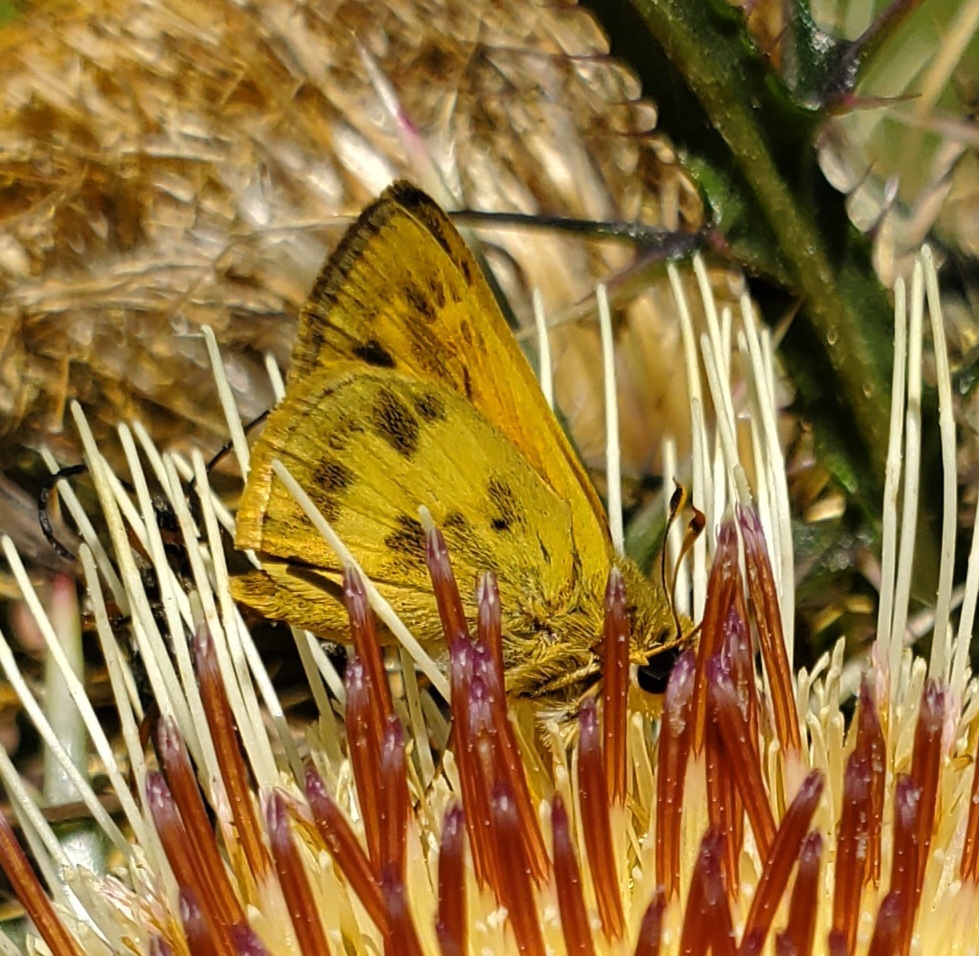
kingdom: Animalia
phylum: Arthropoda
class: Insecta
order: Lepidoptera
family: Hesperiidae
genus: Polites
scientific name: Polites vibex
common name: Whirlabout
